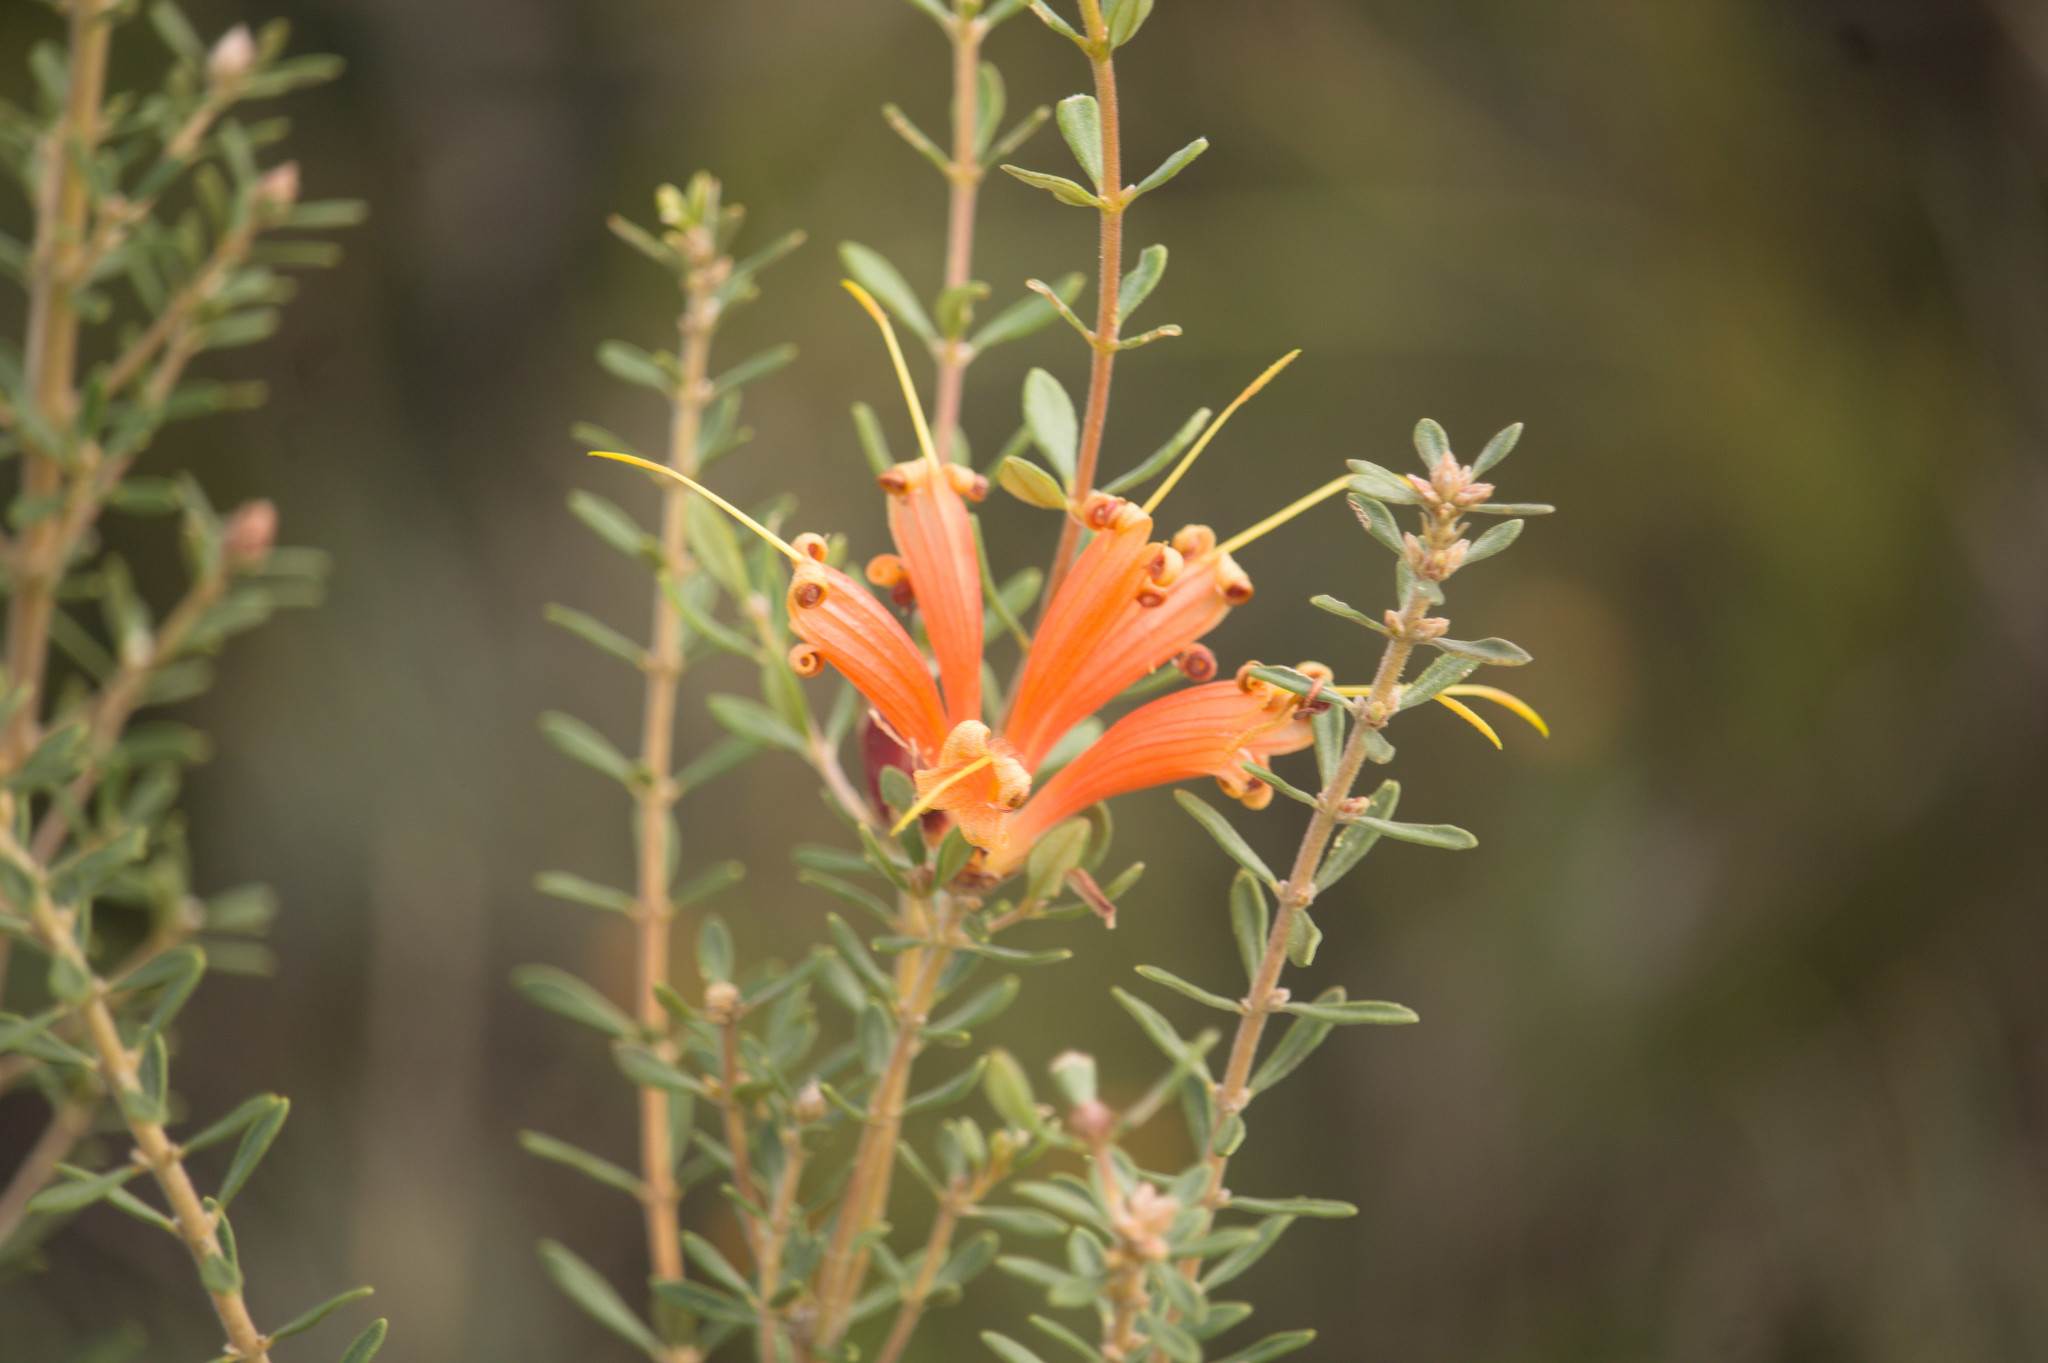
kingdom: Plantae
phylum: Tracheophyta
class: Magnoliopsida
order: Proteales
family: Proteaceae
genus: Lambertia
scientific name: Lambertia inermis
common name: Chittick
